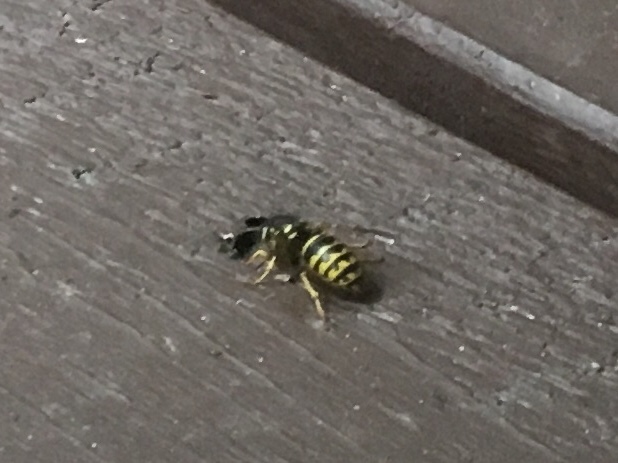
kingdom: Animalia
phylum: Arthropoda
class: Insecta
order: Hymenoptera
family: Vespidae
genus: Dolichovespula
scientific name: Dolichovespula arenaria
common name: Aerial yellowjacket
